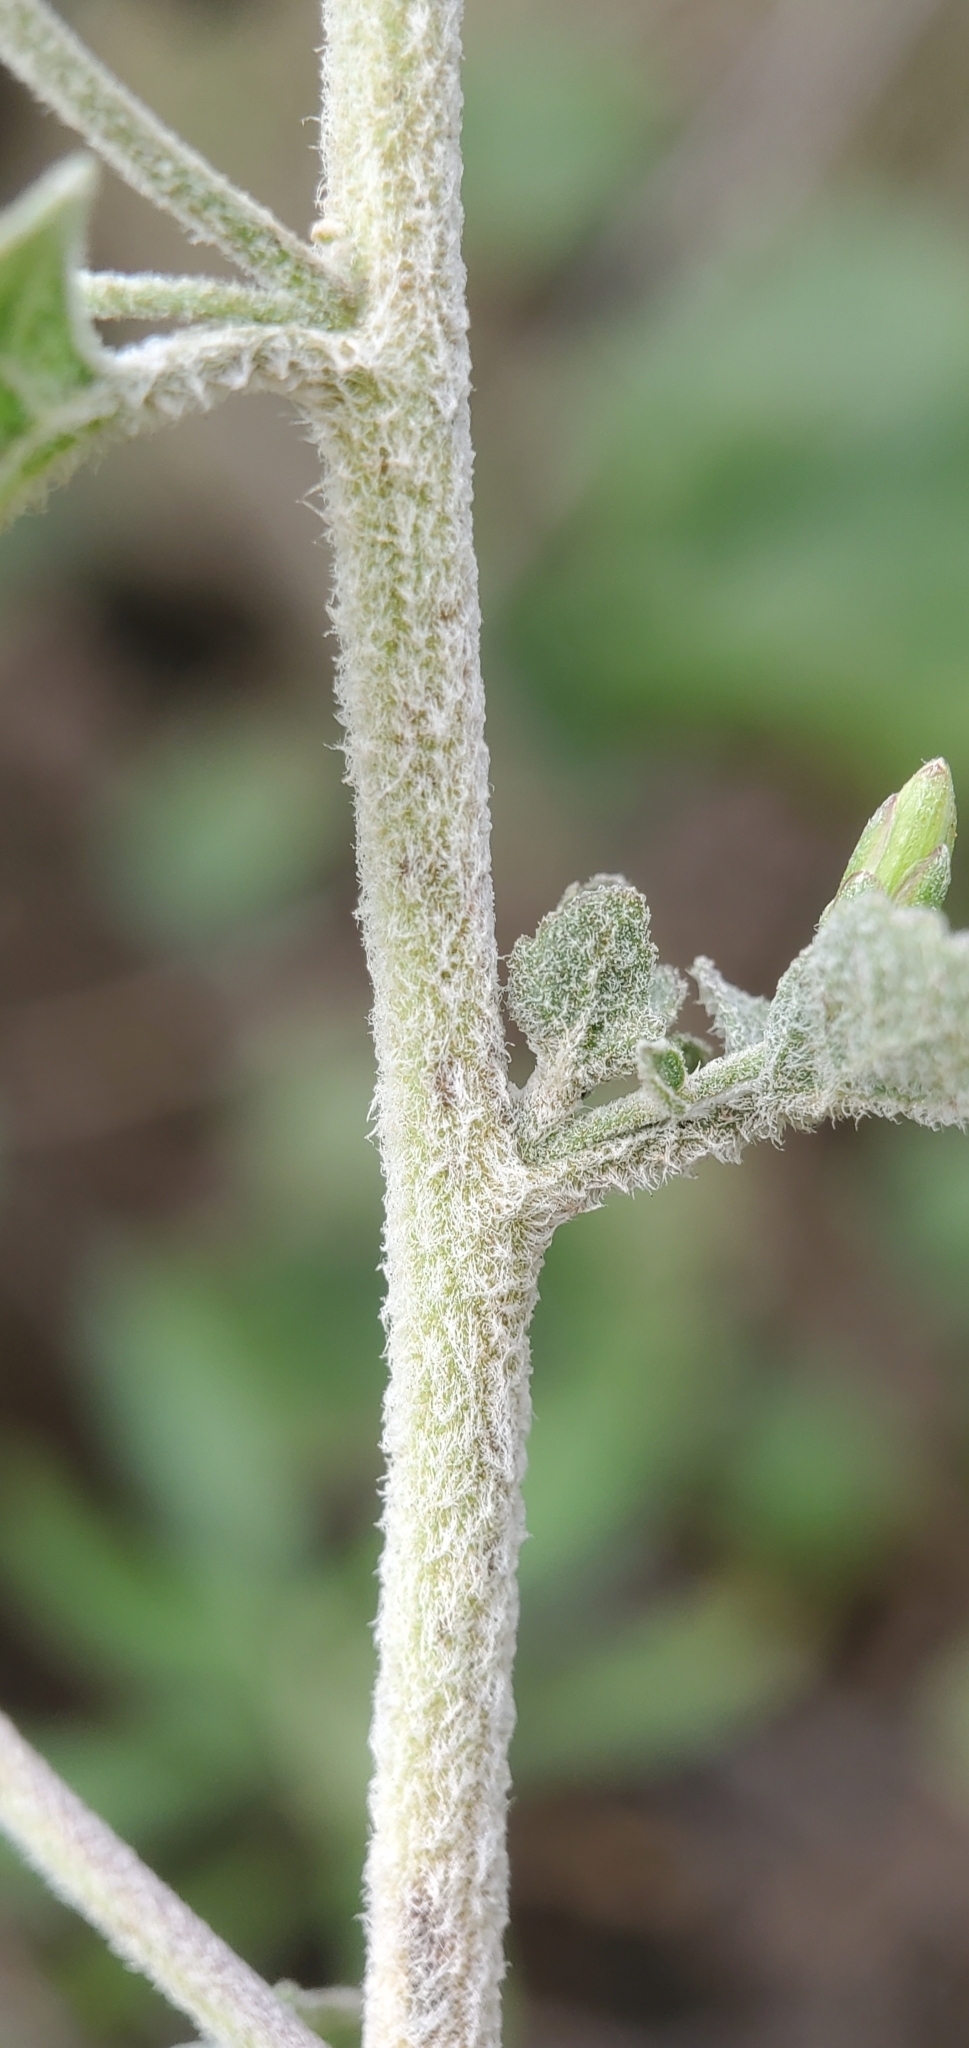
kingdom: Plantae
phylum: Tracheophyta
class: Magnoliopsida
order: Asterales
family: Asteraceae
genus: Brickellia
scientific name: Brickellia californica
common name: California brickellbush
